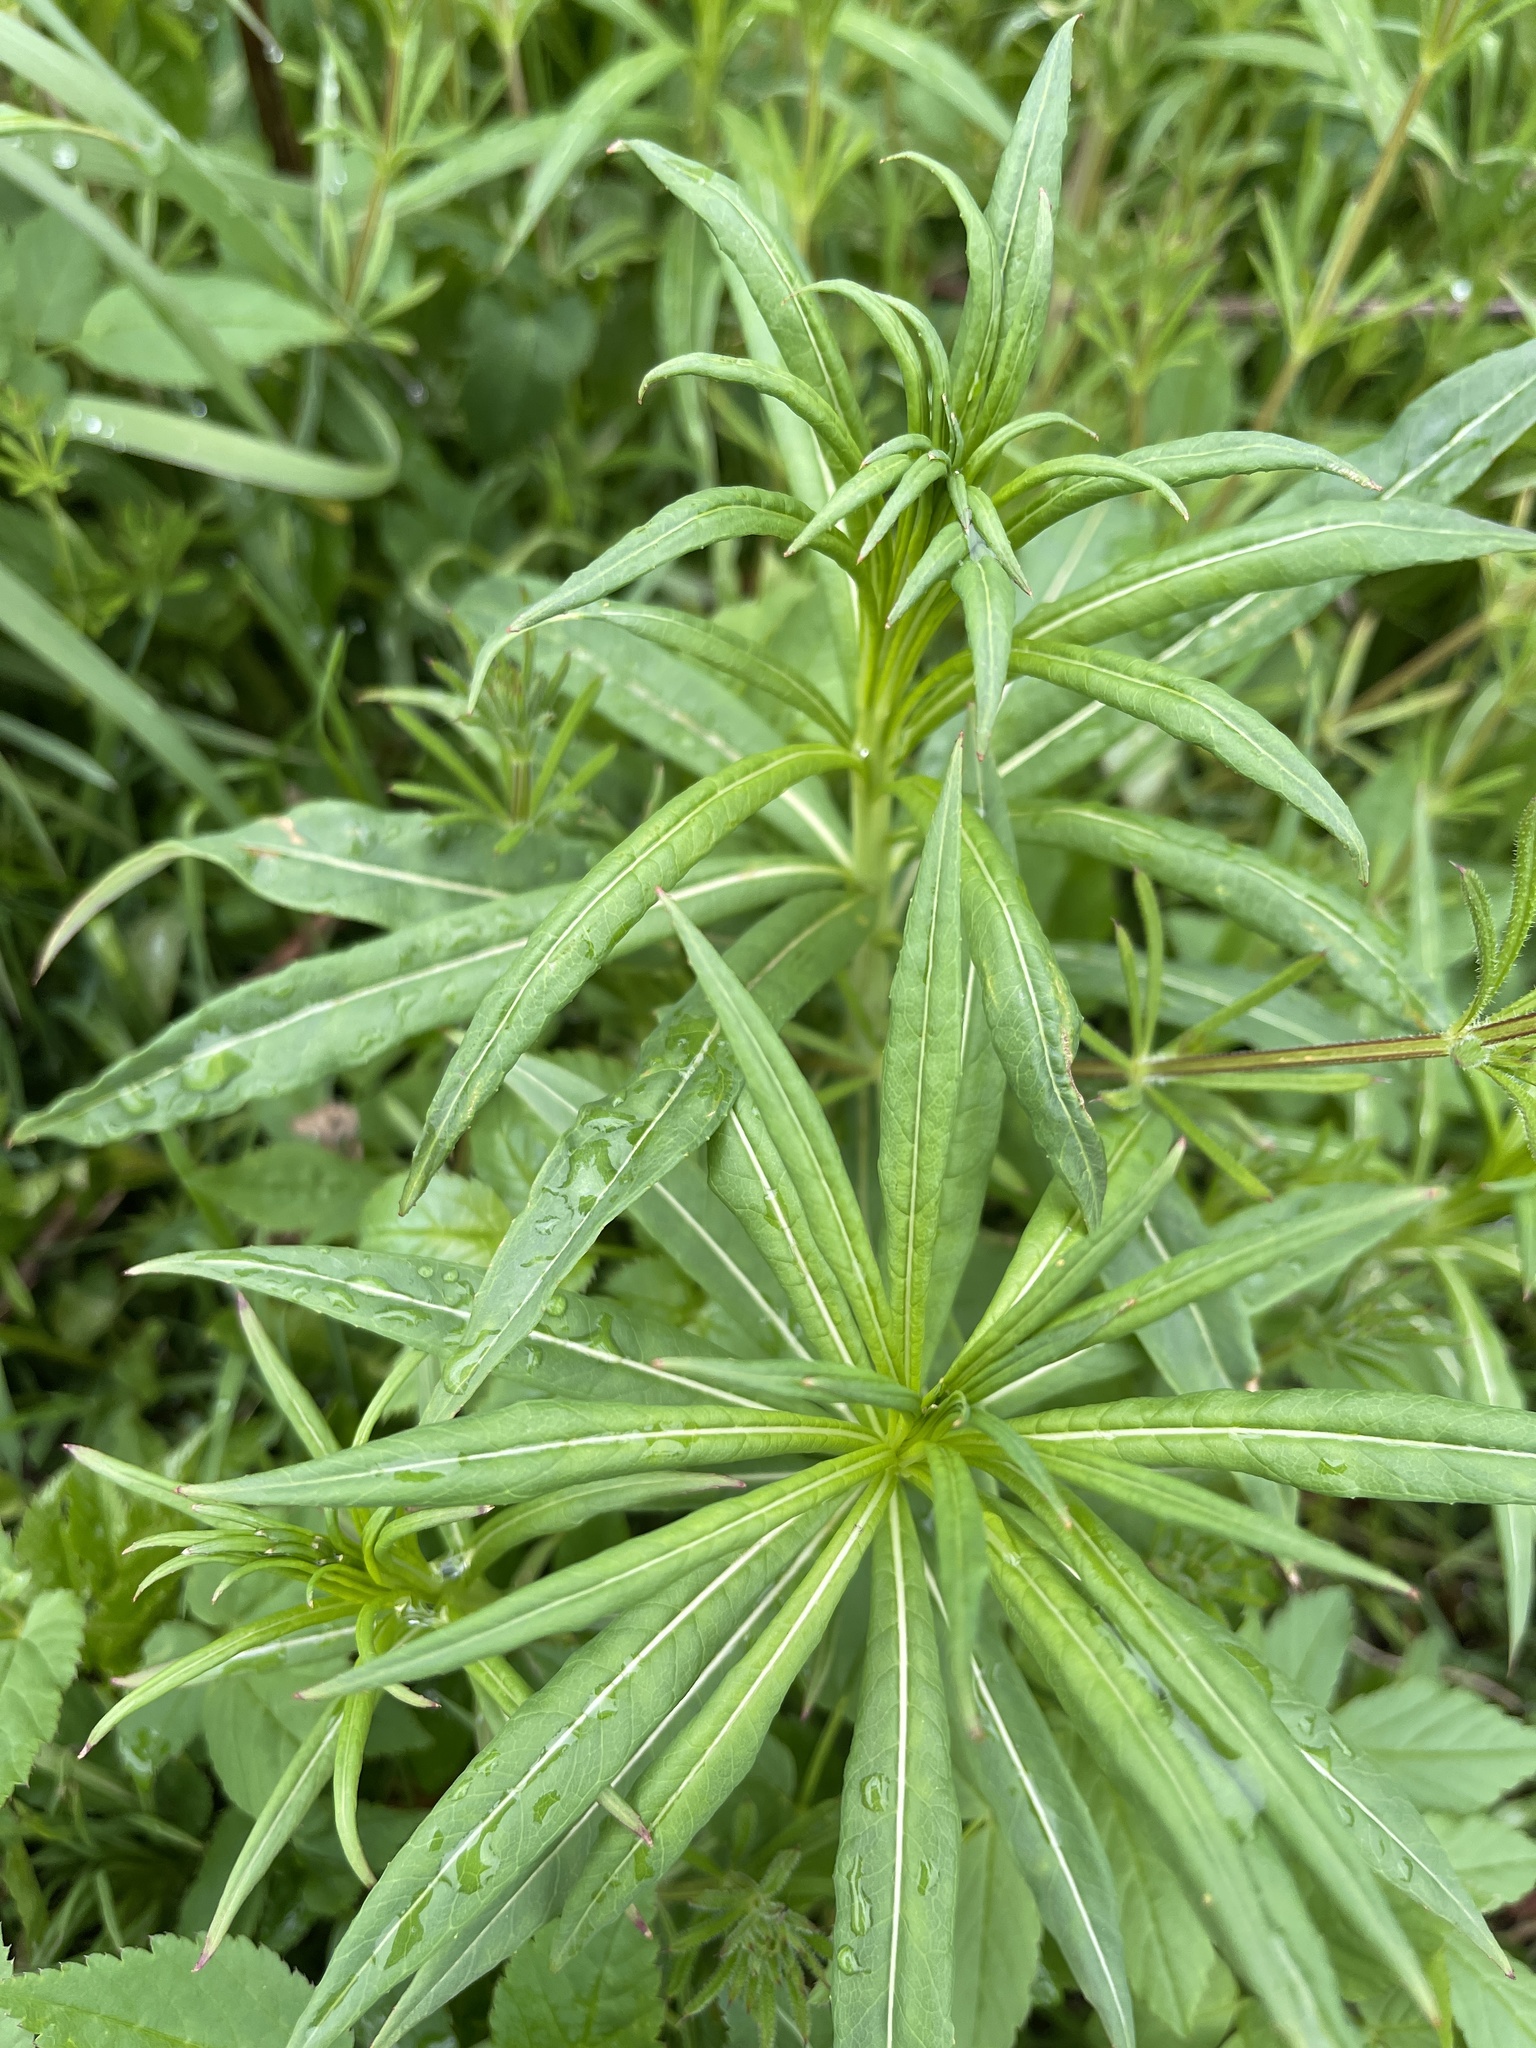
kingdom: Plantae
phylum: Tracheophyta
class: Magnoliopsida
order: Myrtales
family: Onagraceae
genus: Chamaenerion
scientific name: Chamaenerion angustifolium
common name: Fireweed
